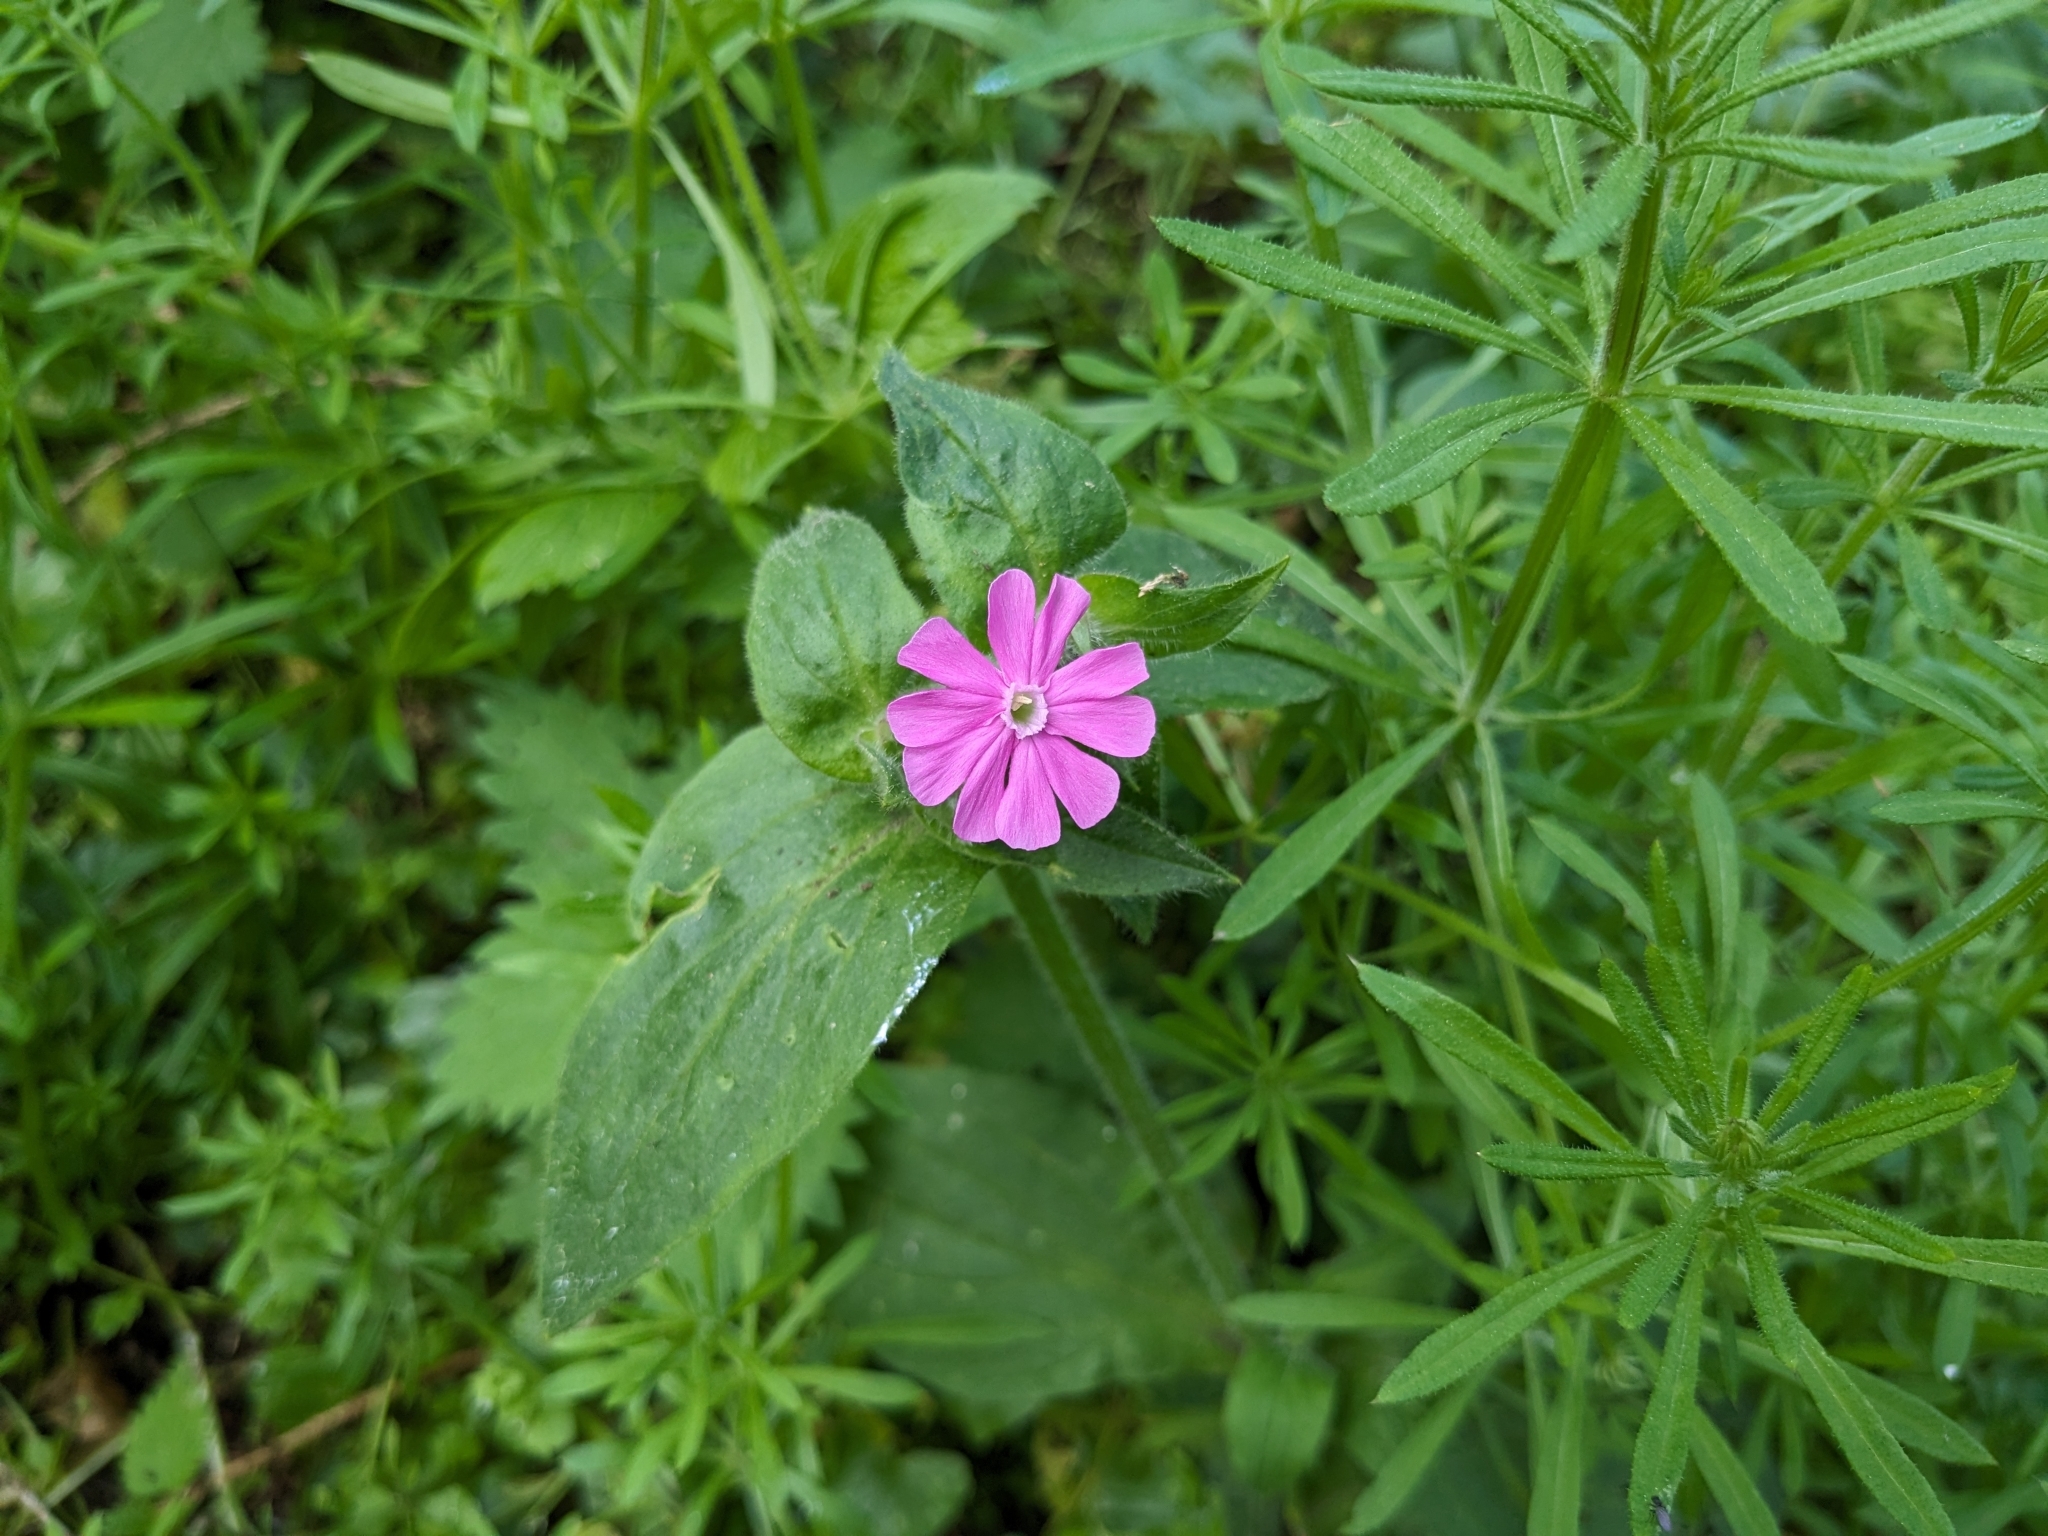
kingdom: Plantae
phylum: Tracheophyta
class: Magnoliopsida
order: Caryophyllales
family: Caryophyllaceae
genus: Silene
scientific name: Silene dioica
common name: Red campion
